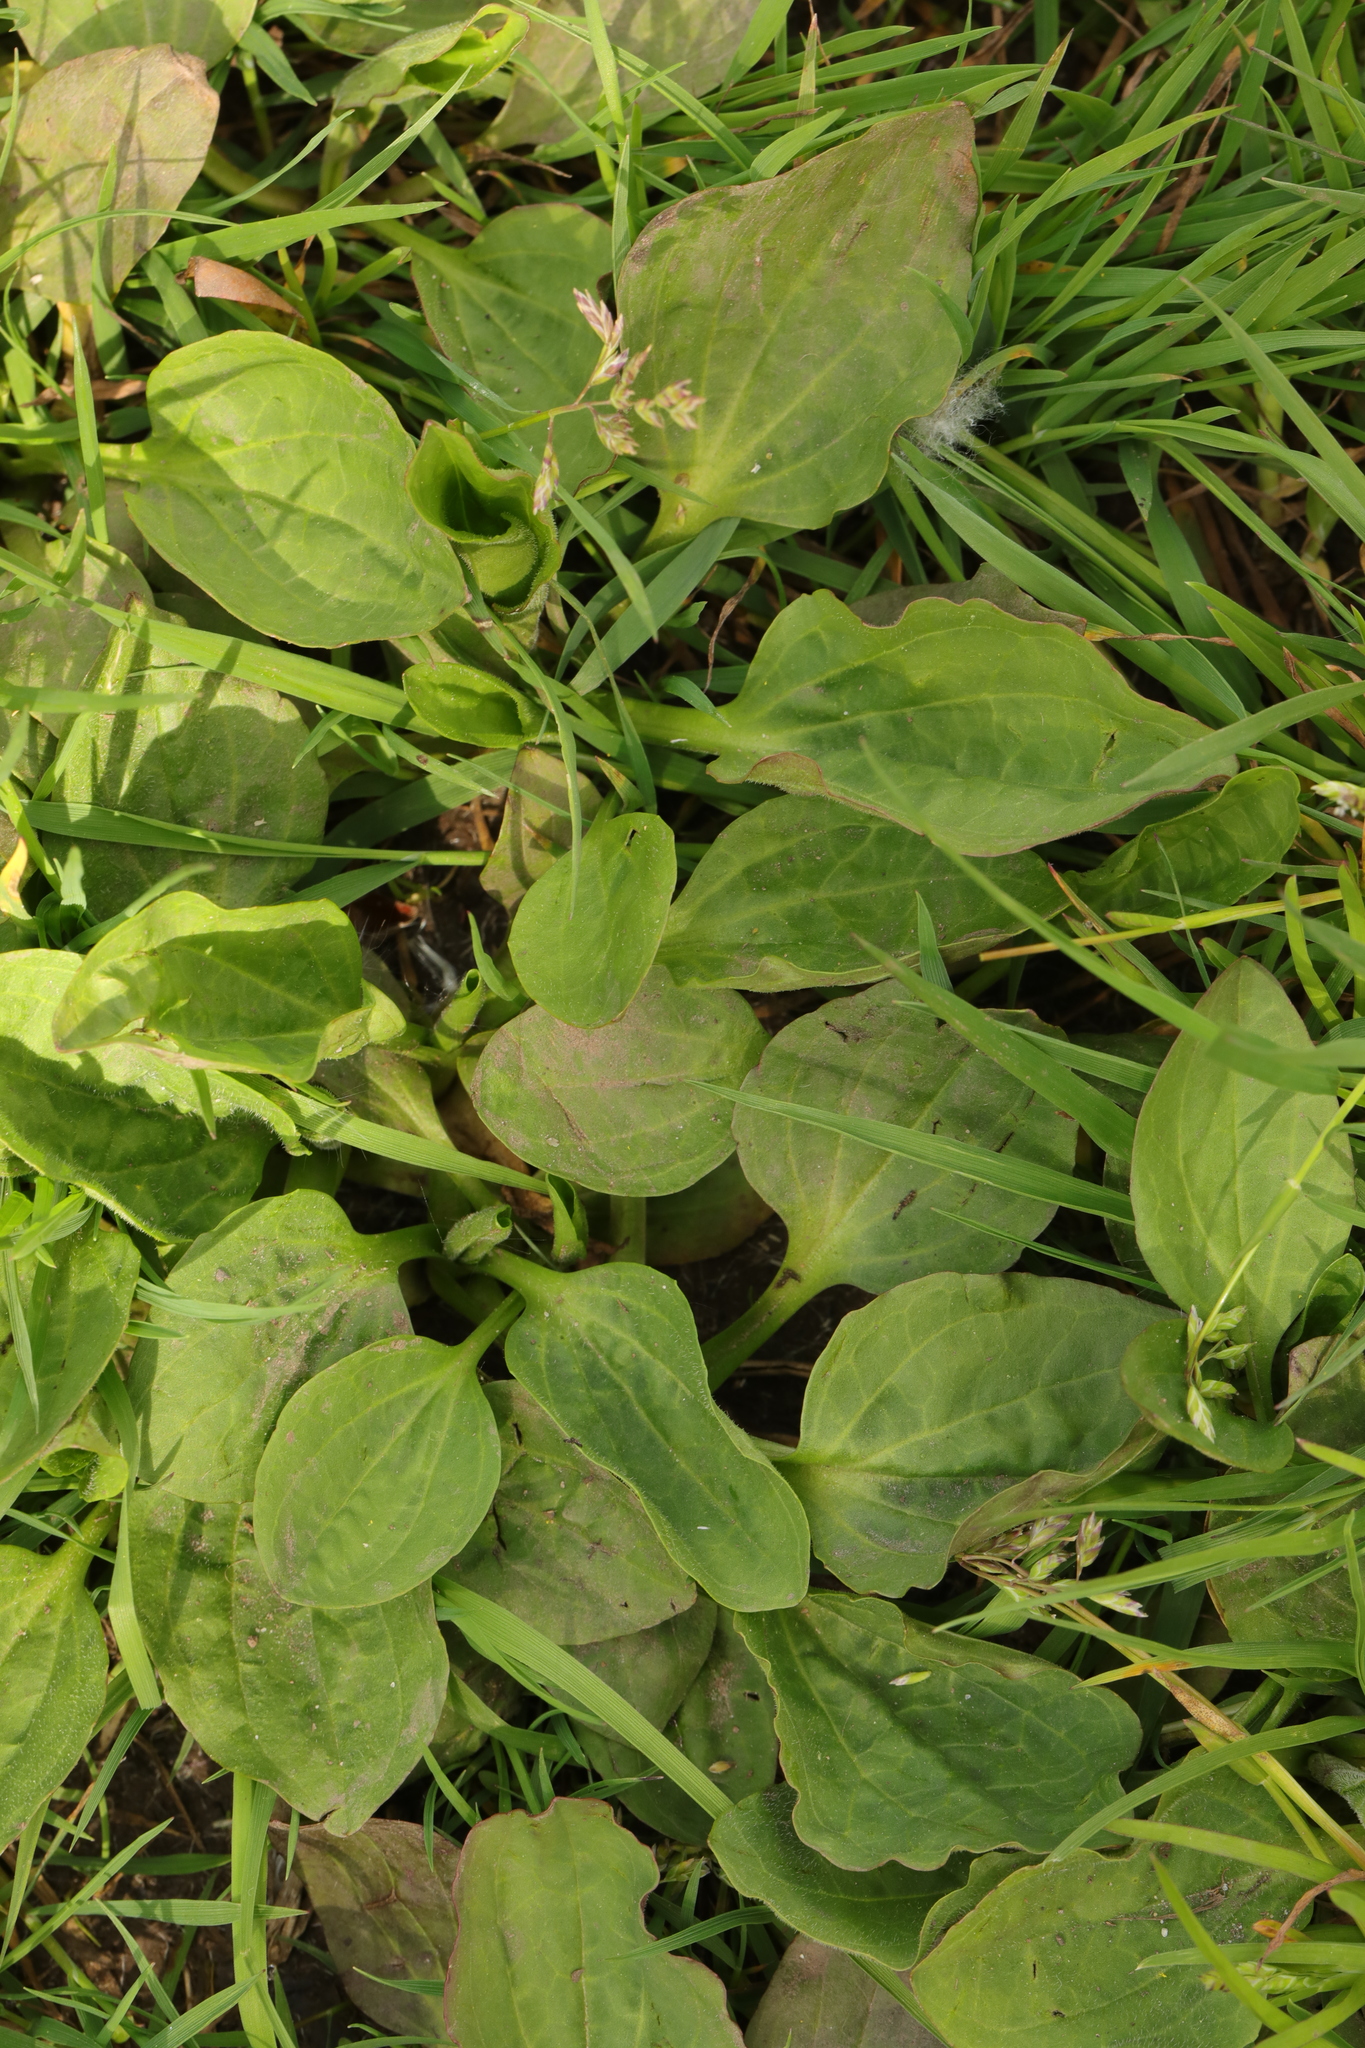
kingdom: Plantae
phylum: Tracheophyta
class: Magnoliopsida
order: Lamiales
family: Plantaginaceae
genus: Plantago
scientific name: Plantago major
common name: Common plantain
